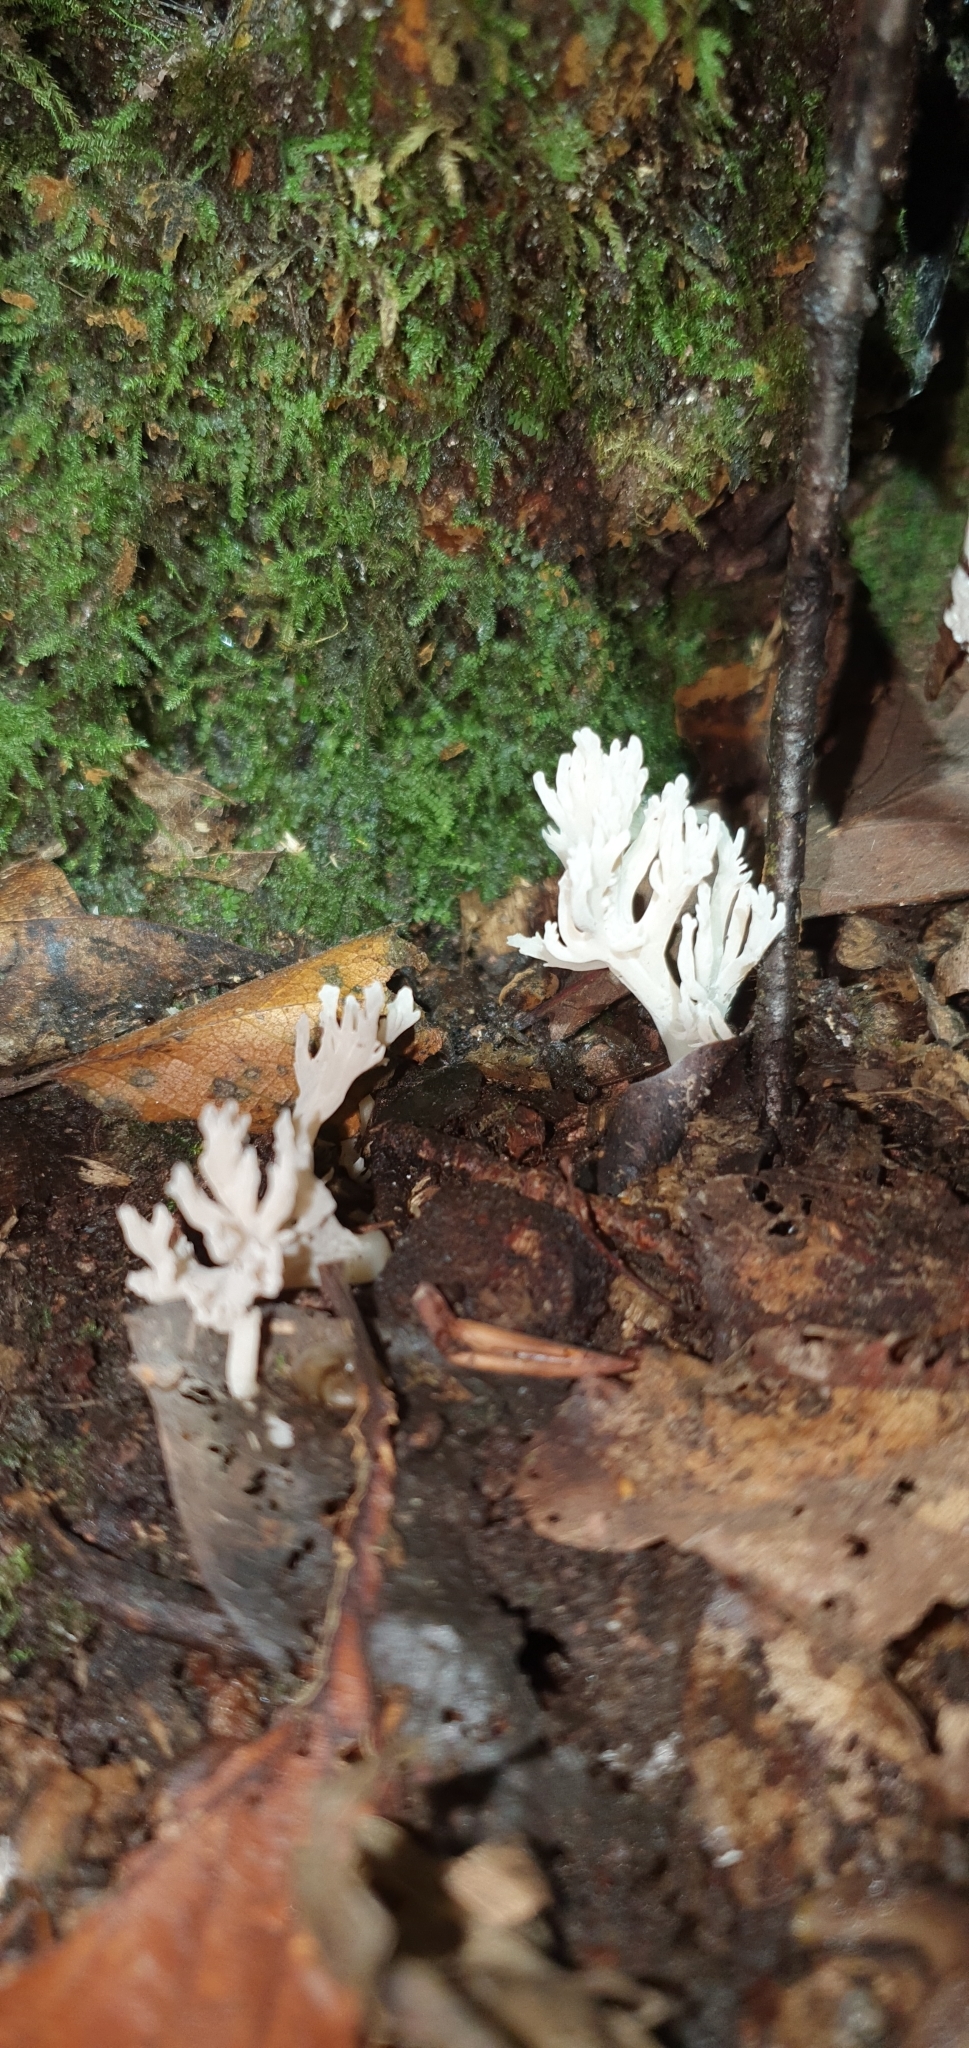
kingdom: Fungi
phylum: Basidiomycota
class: Agaricomycetes
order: Cantharellales
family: Hydnaceae
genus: Clavulina
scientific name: Clavulina coralloides
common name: Crested coral
